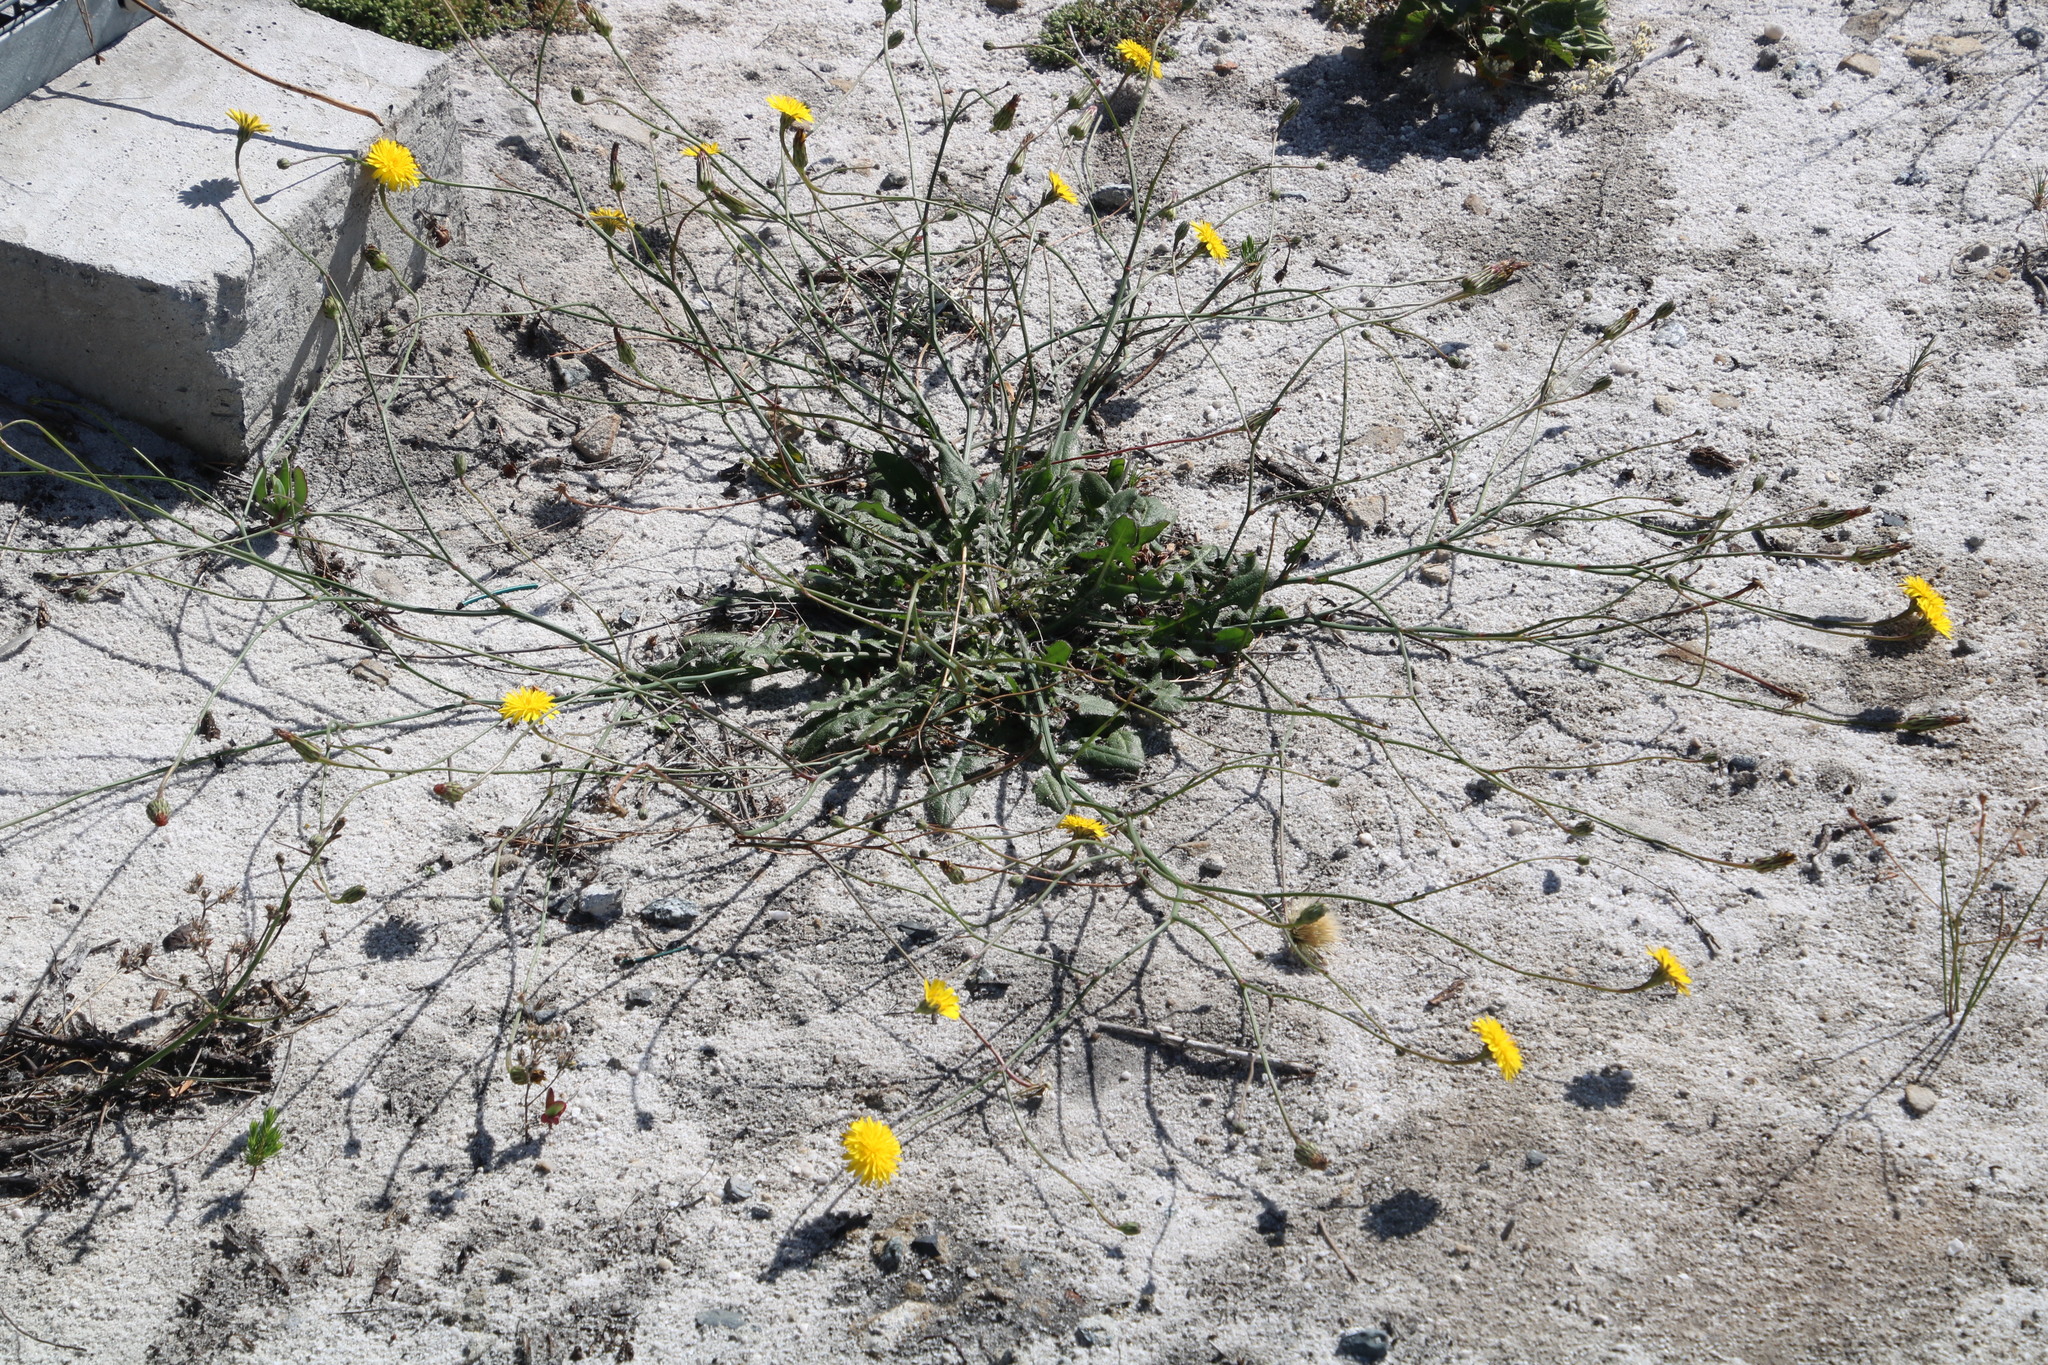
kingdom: Plantae
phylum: Tracheophyta
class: Magnoliopsida
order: Asterales
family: Asteraceae
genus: Hypochaeris
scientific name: Hypochaeris radicata
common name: Flatweed
